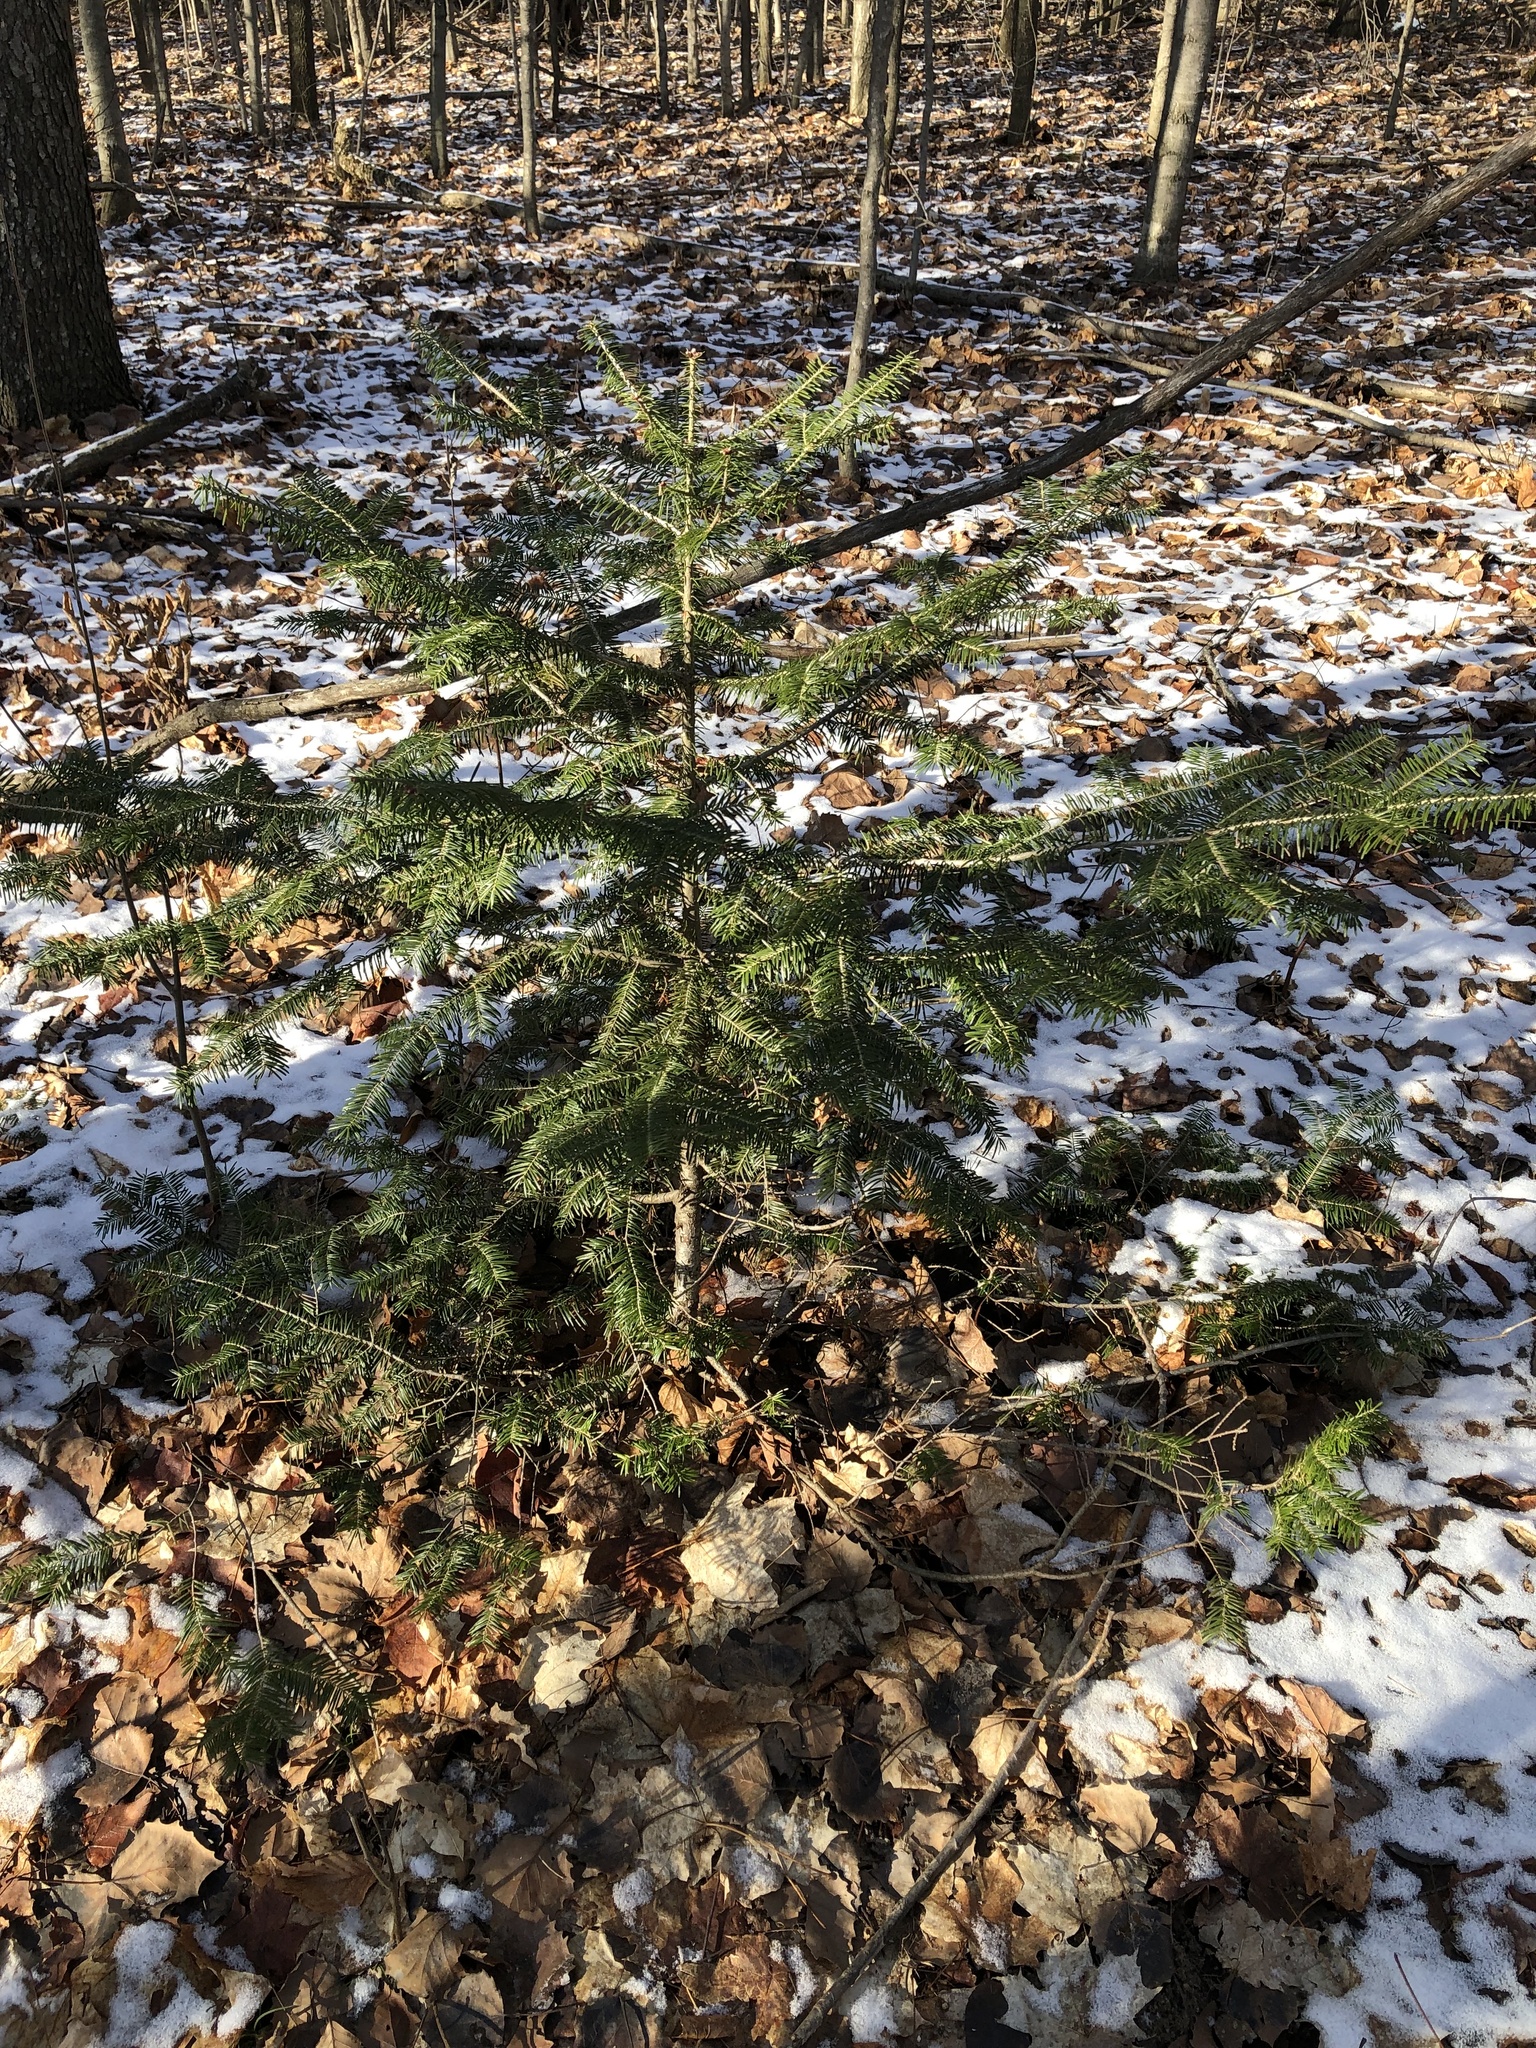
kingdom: Plantae
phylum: Tracheophyta
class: Pinopsida
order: Pinales
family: Pinaceae
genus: Abies
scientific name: Abies balsamea
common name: Balsam fir
